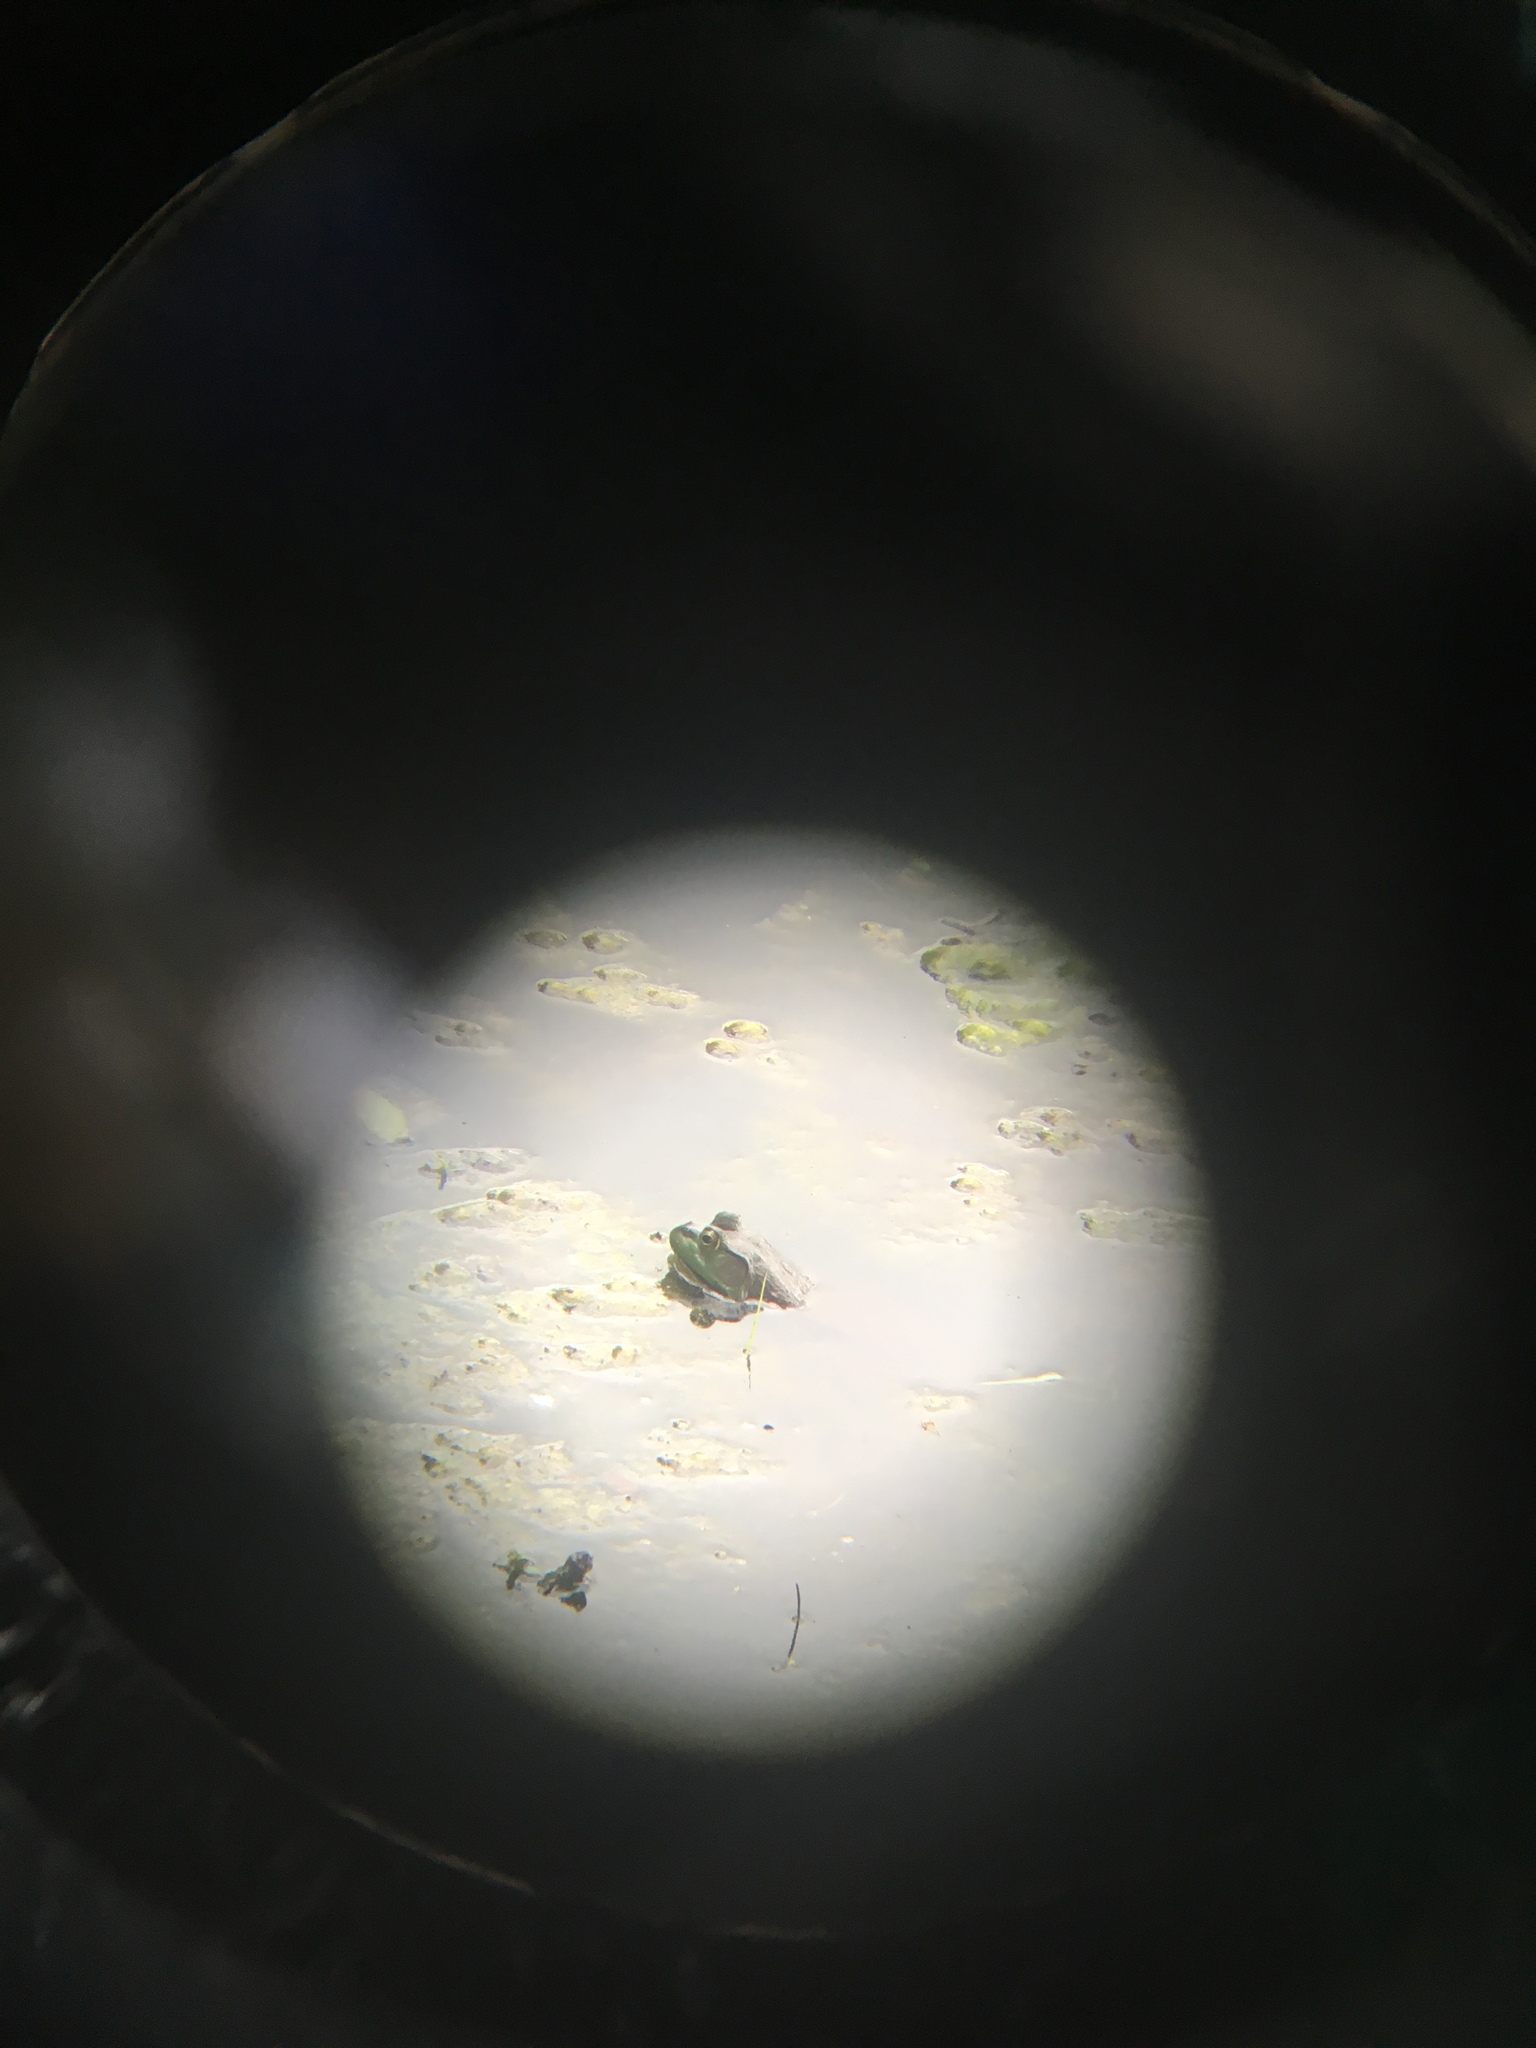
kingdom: Animalia
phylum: Chordata
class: Amphibia
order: Anura
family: Ranidae
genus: Lithobates
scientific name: Lithobates catesbeianus
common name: American bullfrog
